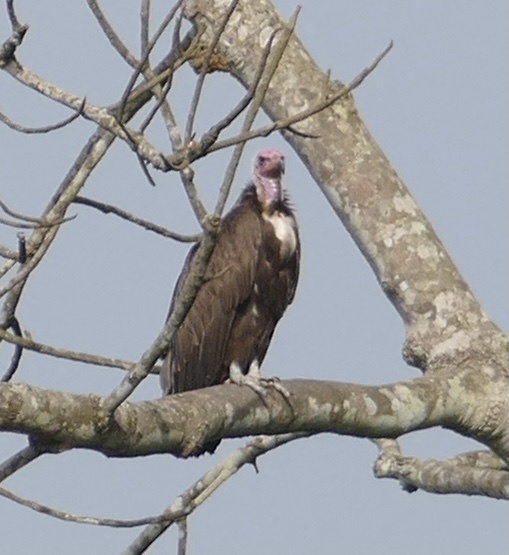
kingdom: Animalia
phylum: Chordata
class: Aves
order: Accipitriformes
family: Accipitridae
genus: Necrosyrtes
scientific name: Necrosyrtes monachus
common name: Hooded vulture
